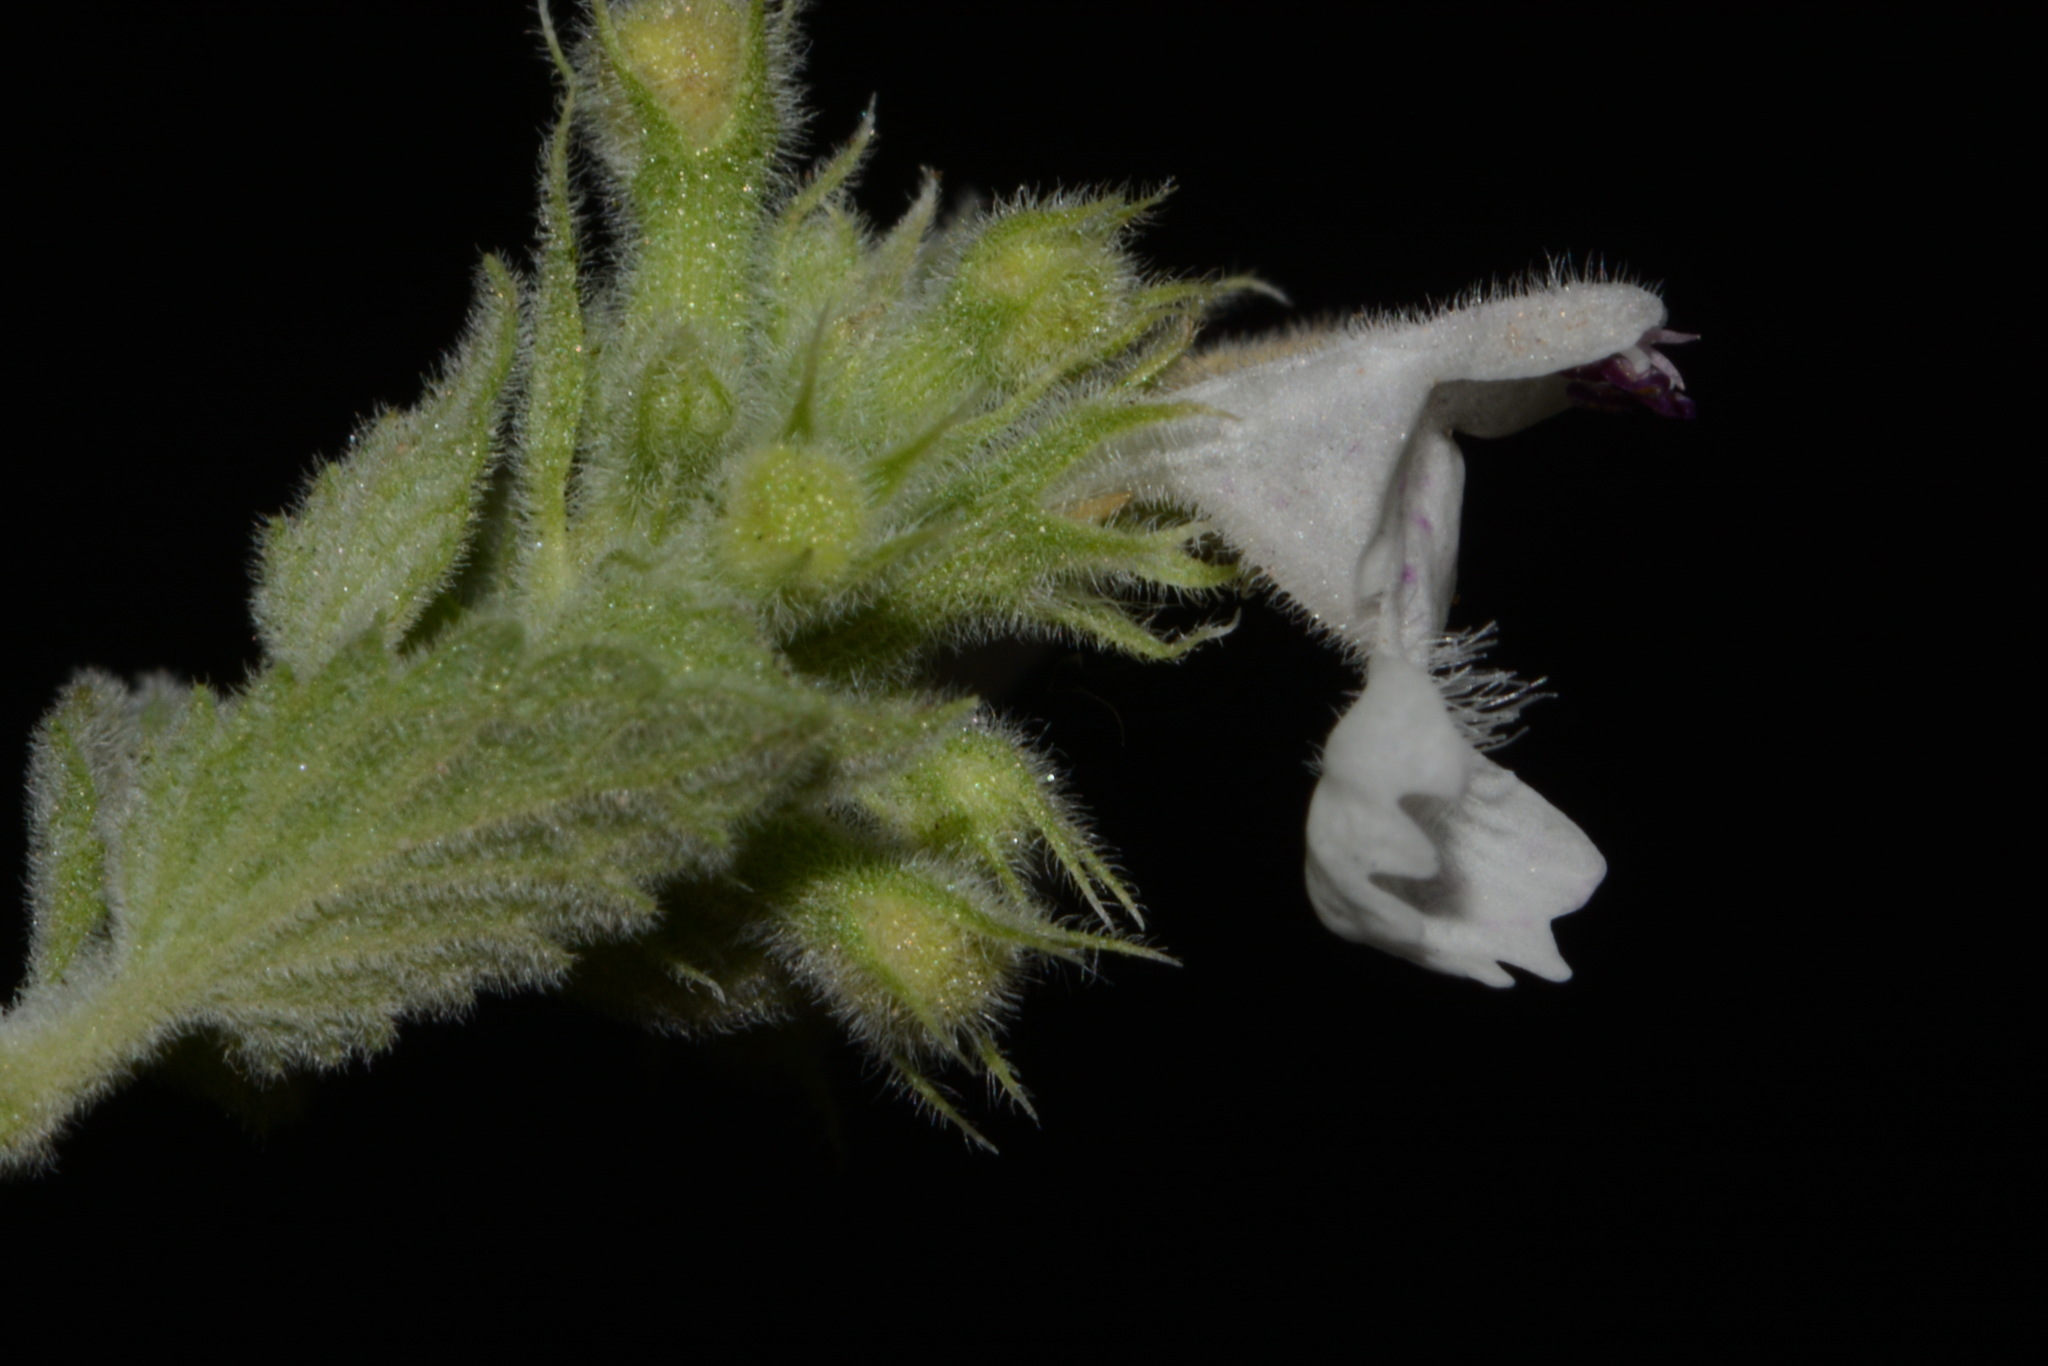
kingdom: Plantae
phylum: Tracheophyta
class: Magnoliopsida
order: Lamiales
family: Lamiaceae
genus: Nepeta
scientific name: Nepeta cataria
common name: Catnip
